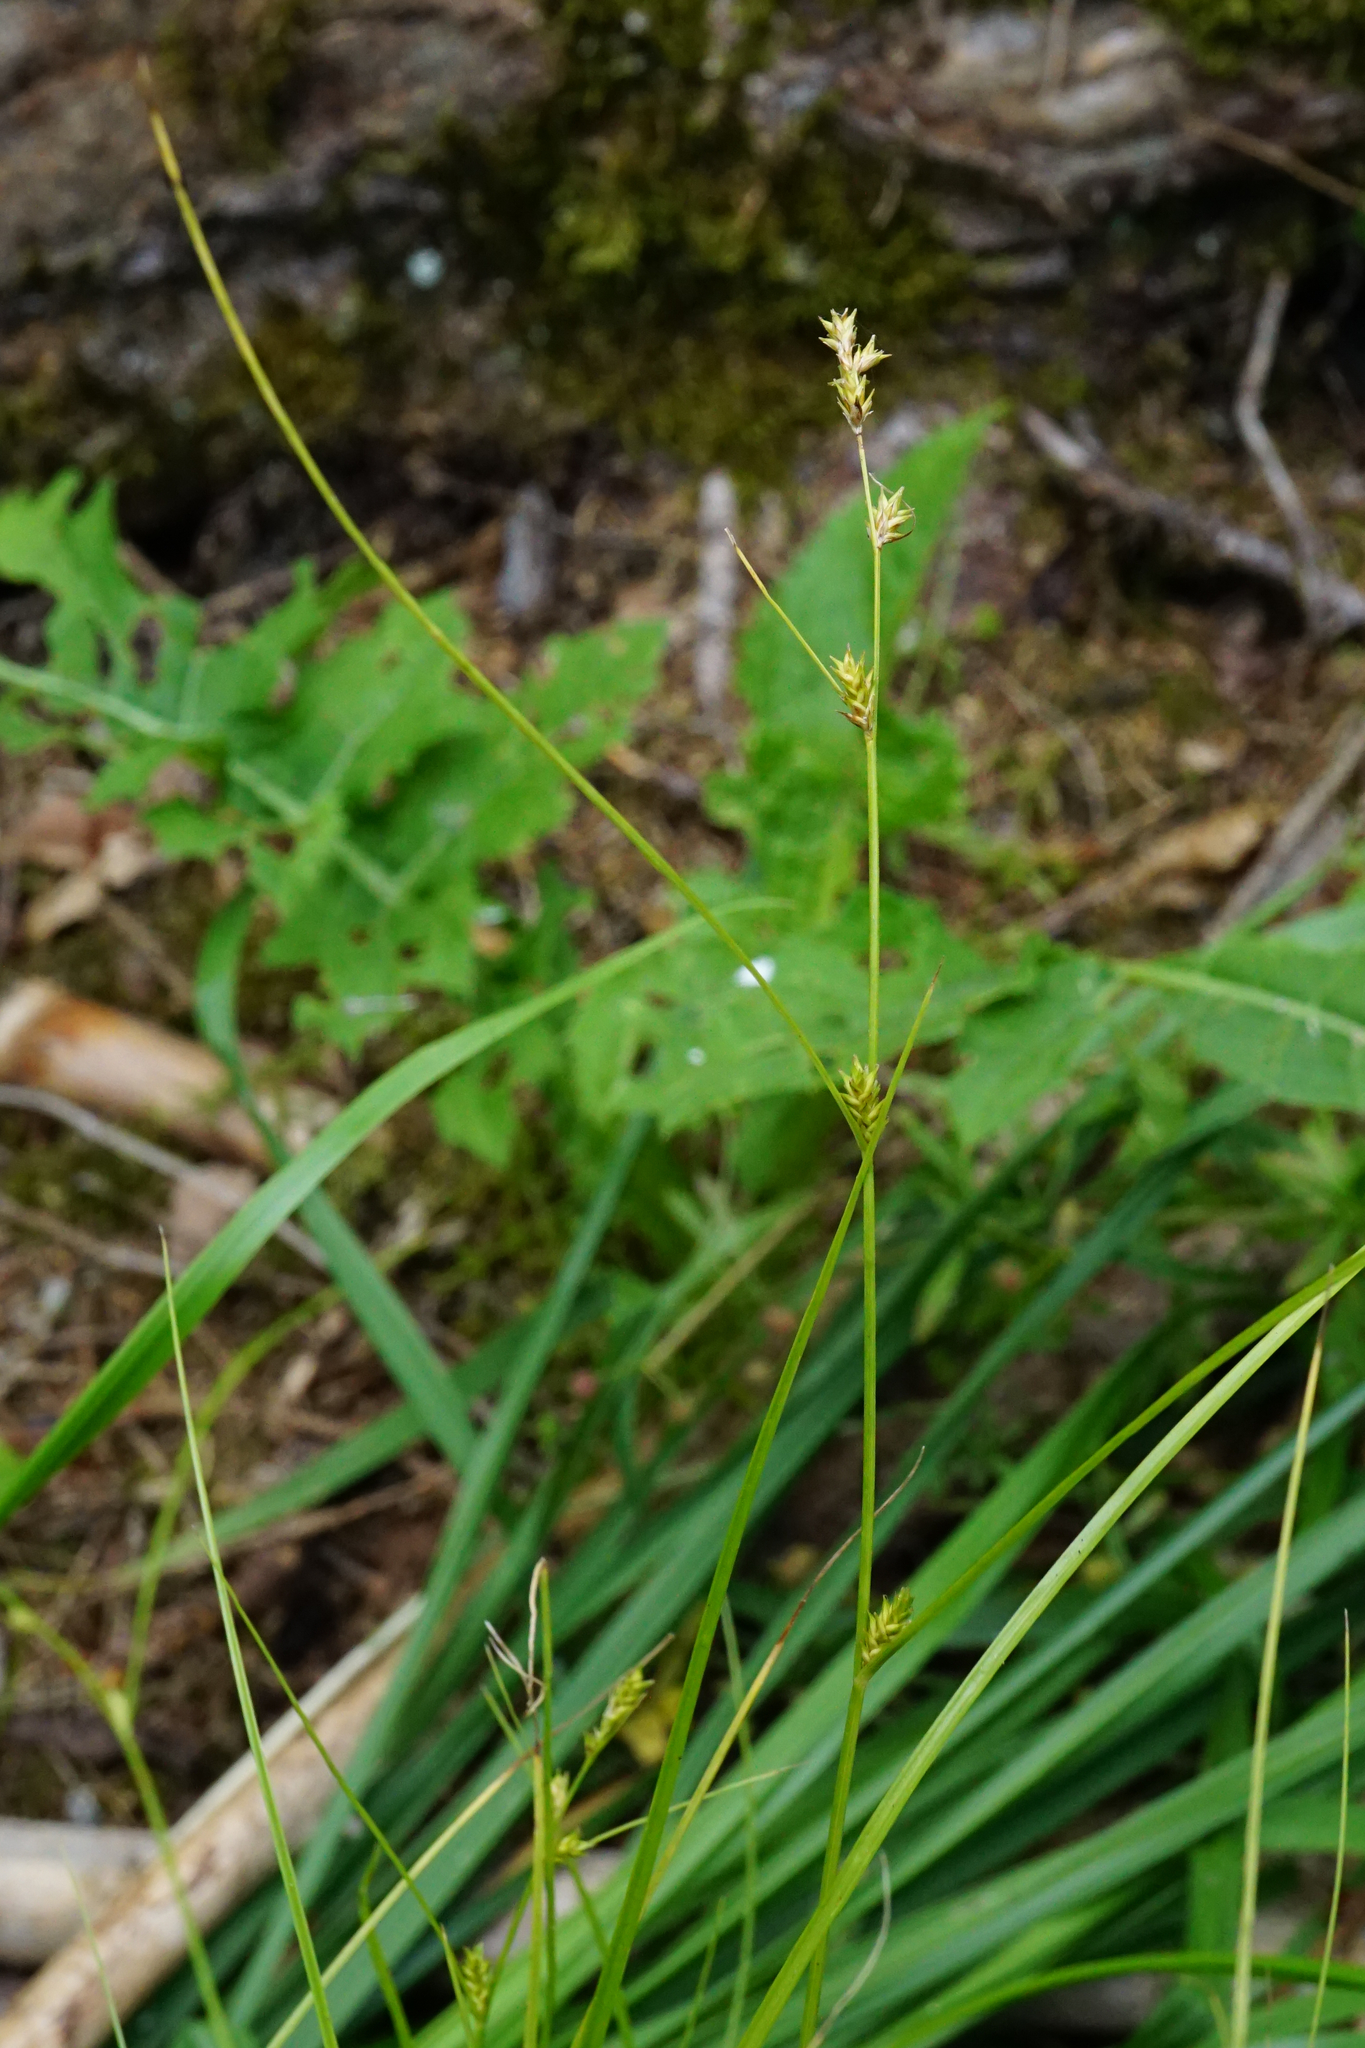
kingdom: Plantae
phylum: Tracheophyta
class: Liliopsida
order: Poales
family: Cyperaceae
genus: Carex
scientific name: Carex remota
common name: Remote sedge
